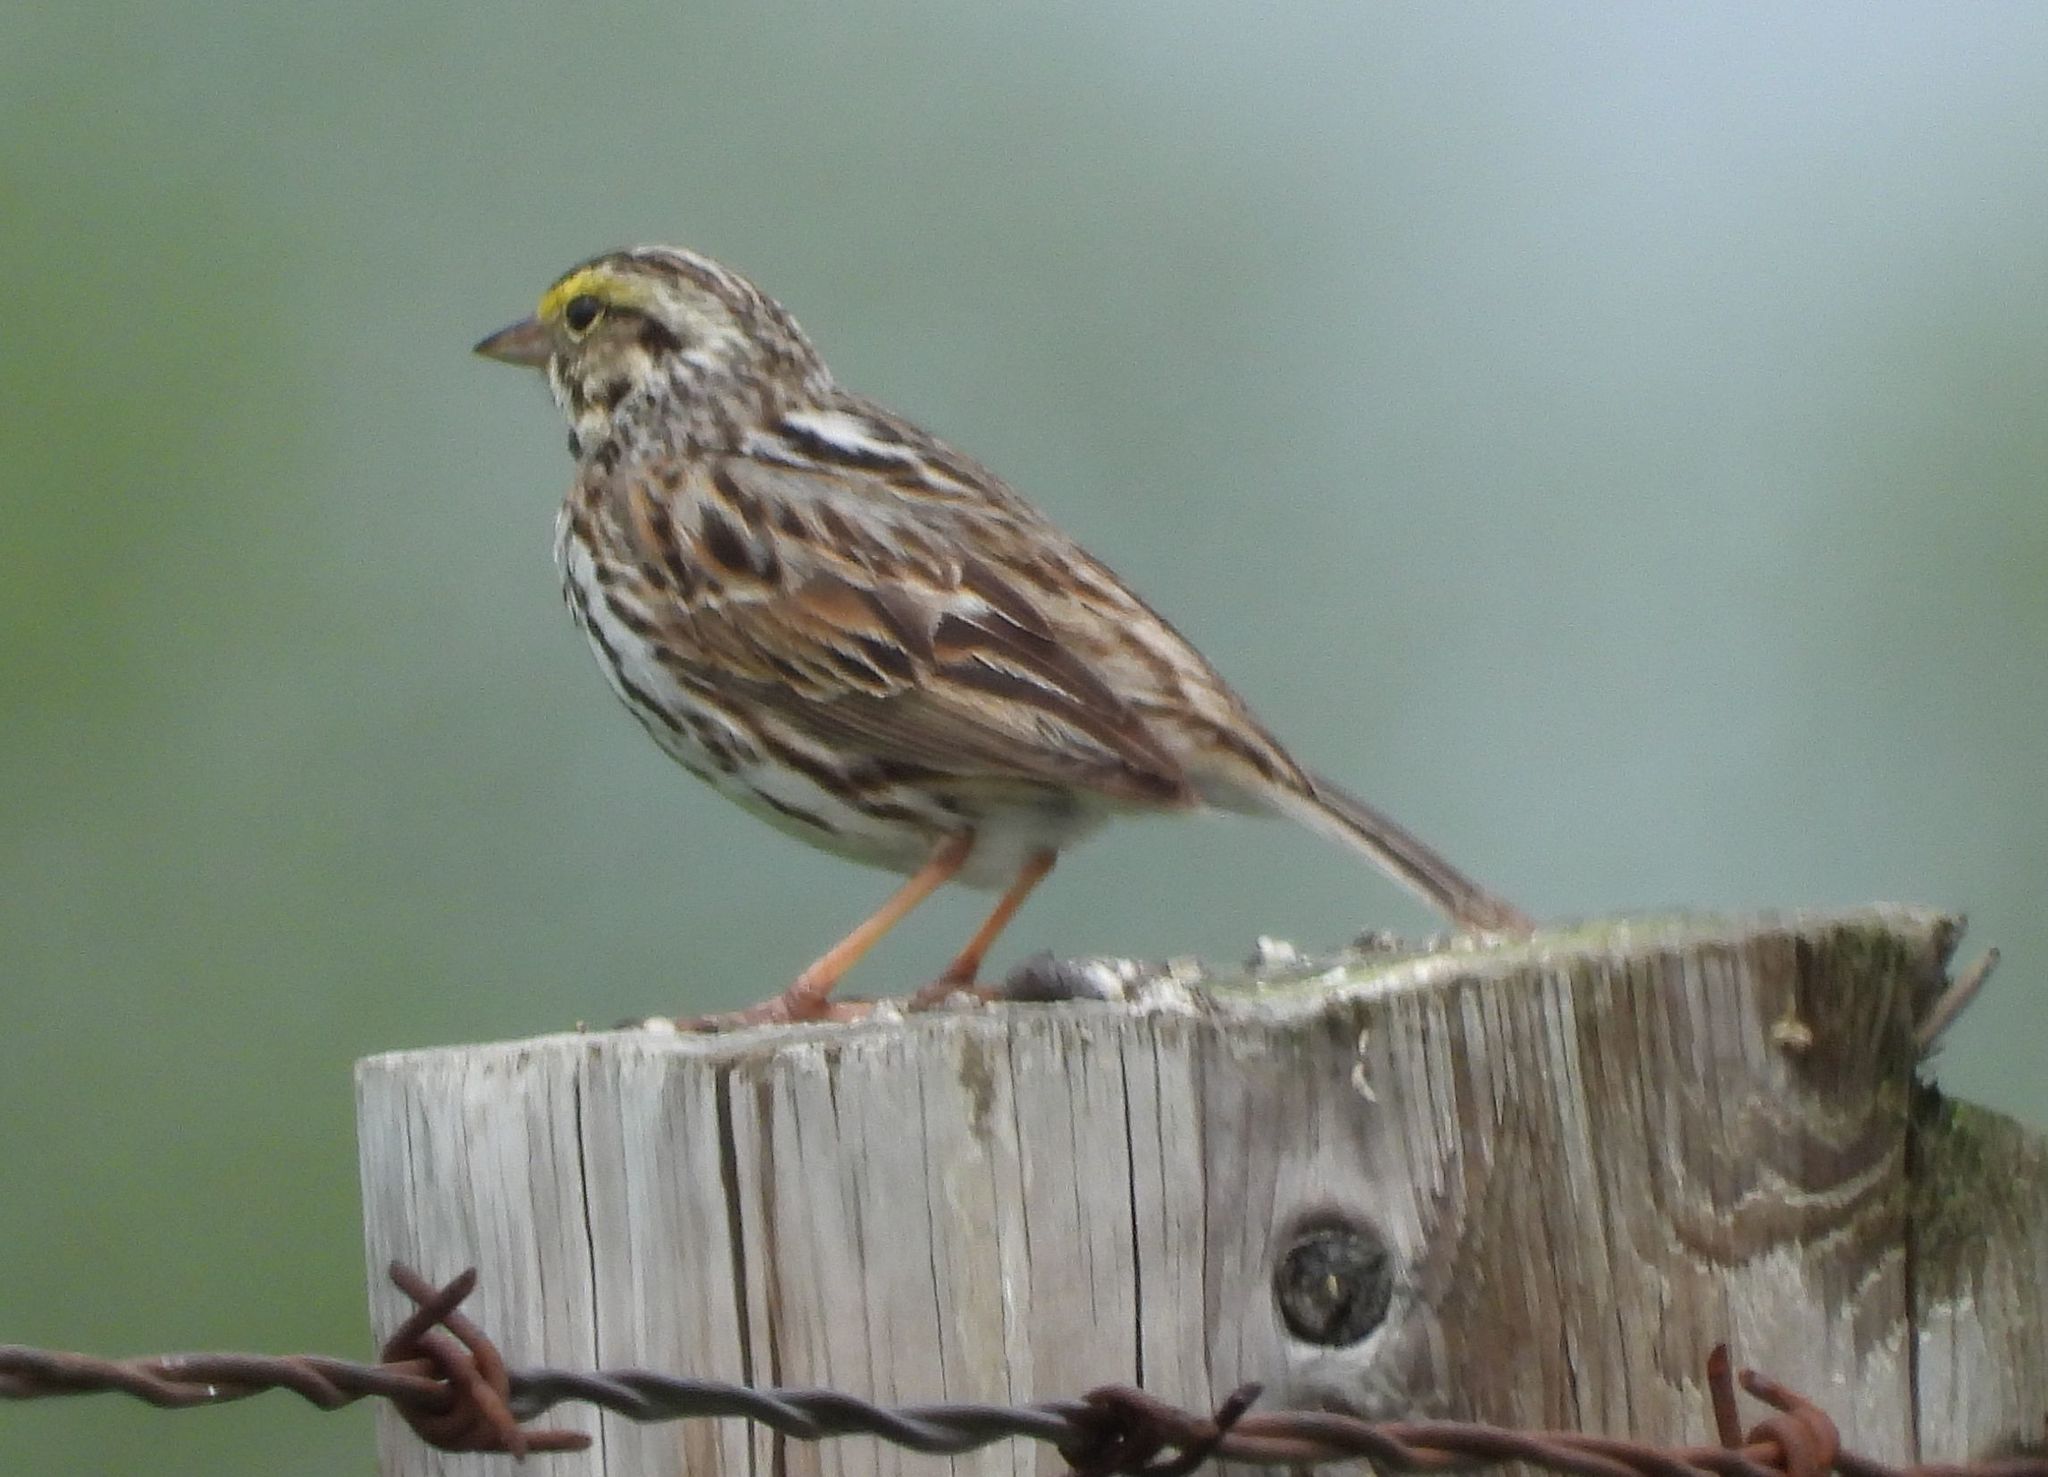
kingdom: Animalia
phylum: Chordata
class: Aves
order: Passeriformes
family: Passerellidae
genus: Passerculus
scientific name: Passerculus sandwichensis
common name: Savannah sparrow
